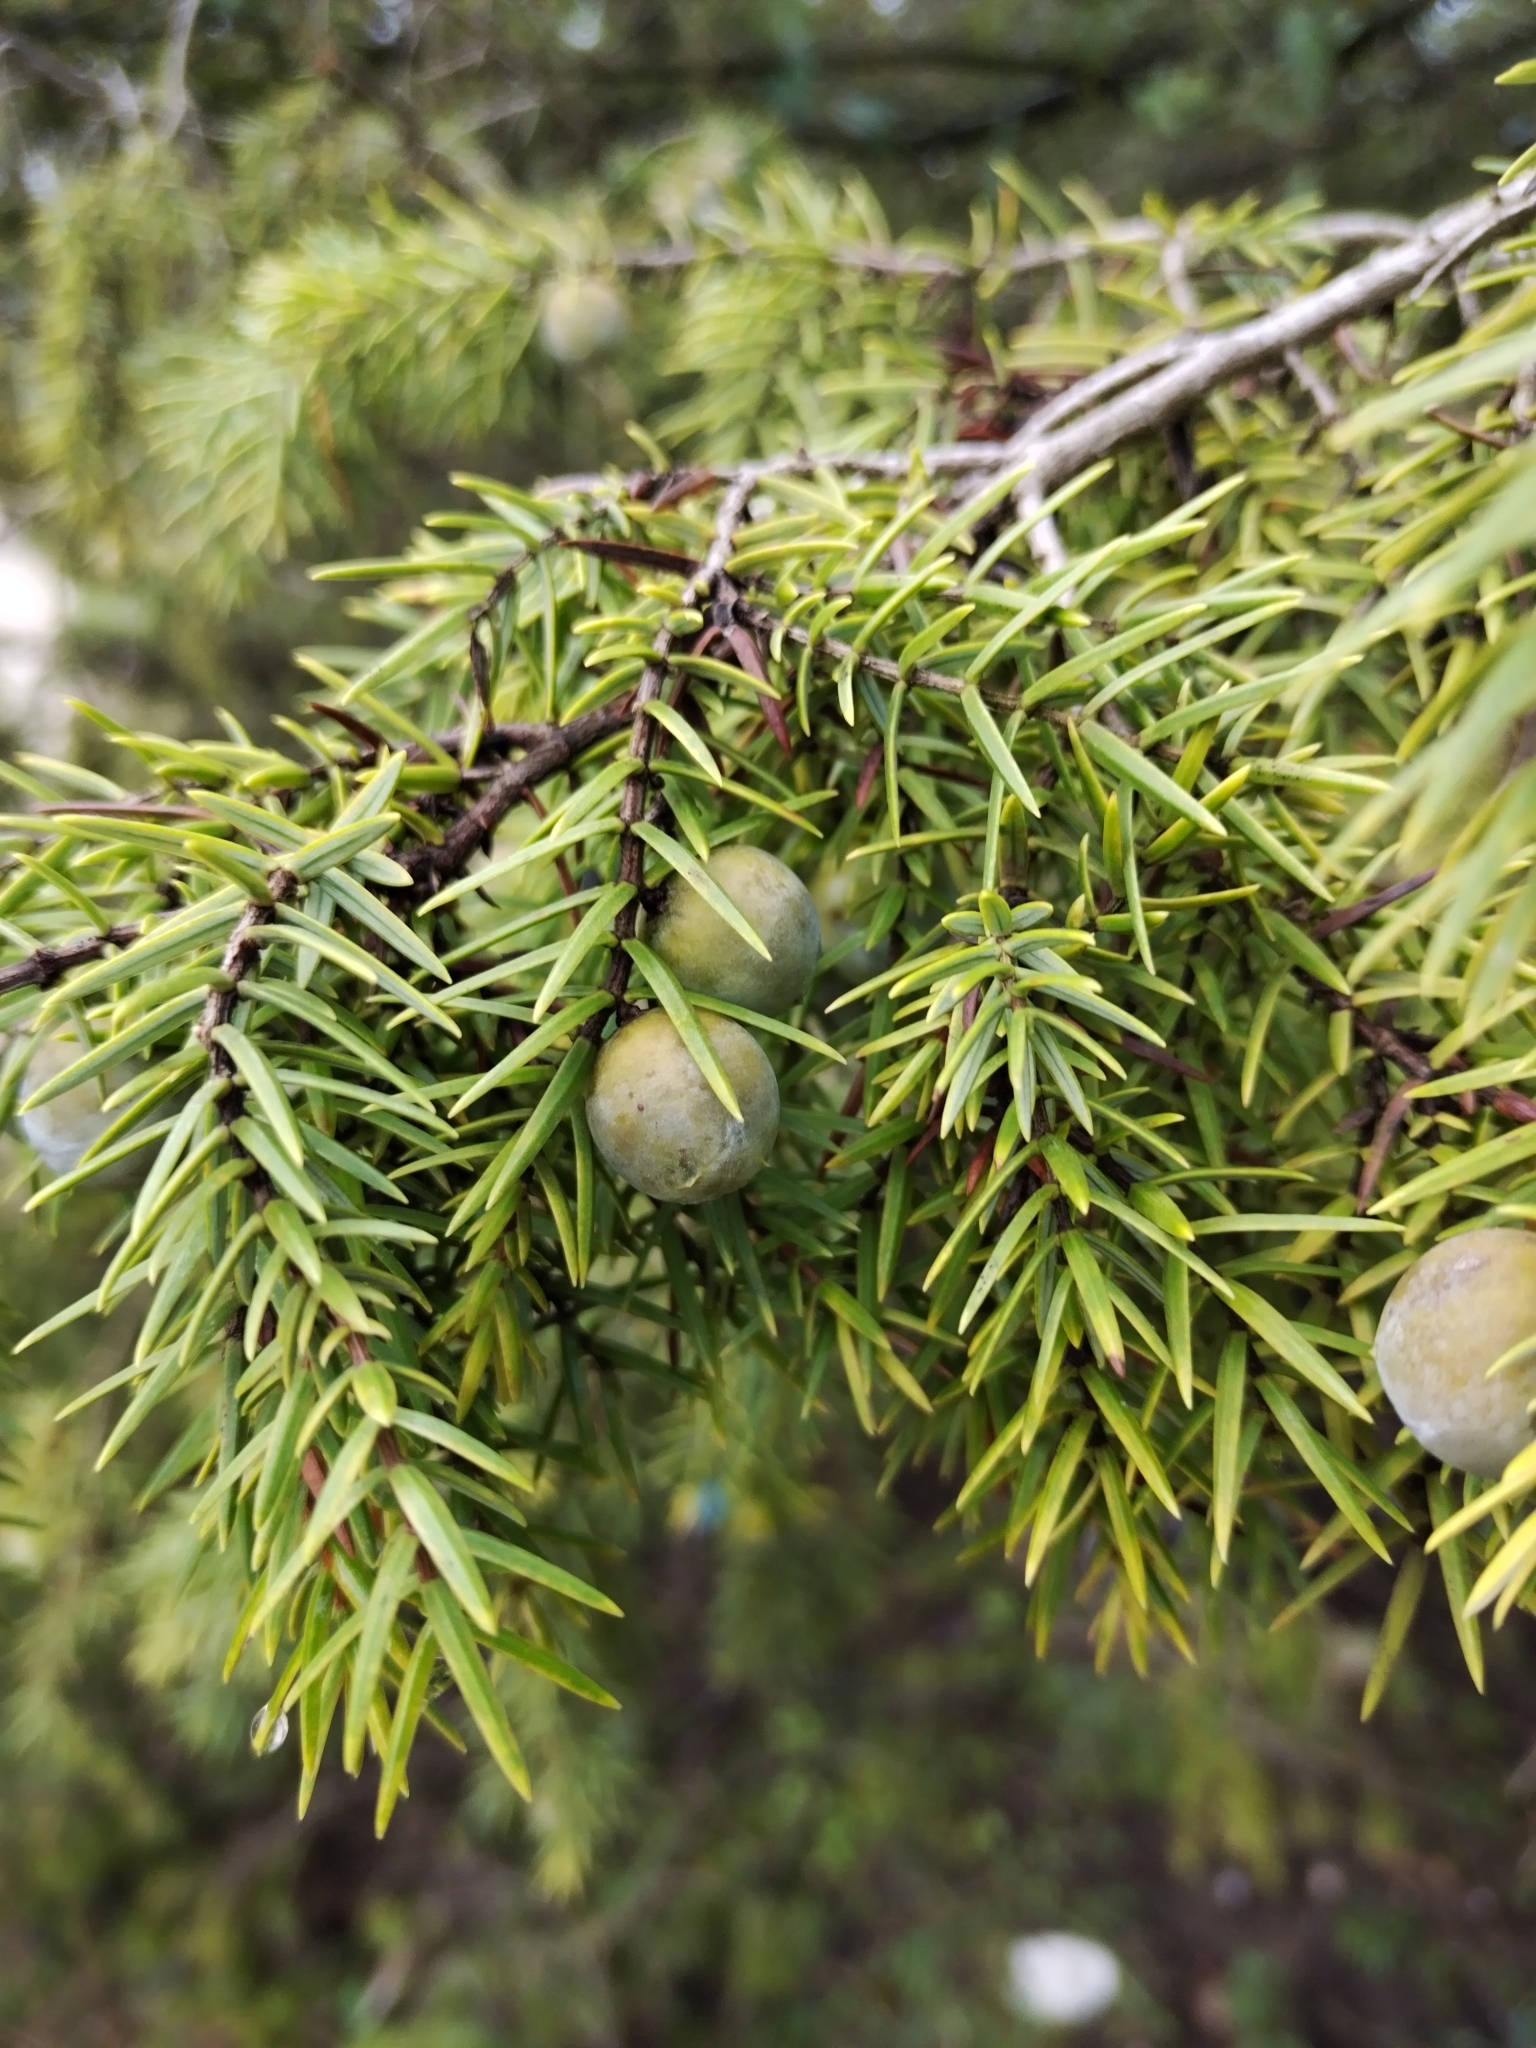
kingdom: Plantae
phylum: Tracheophyta
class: Pinopsida
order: Pinales
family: Cupressaceae
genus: Juniperus
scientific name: Juniperus oxycedrus
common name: Prickly juniper
